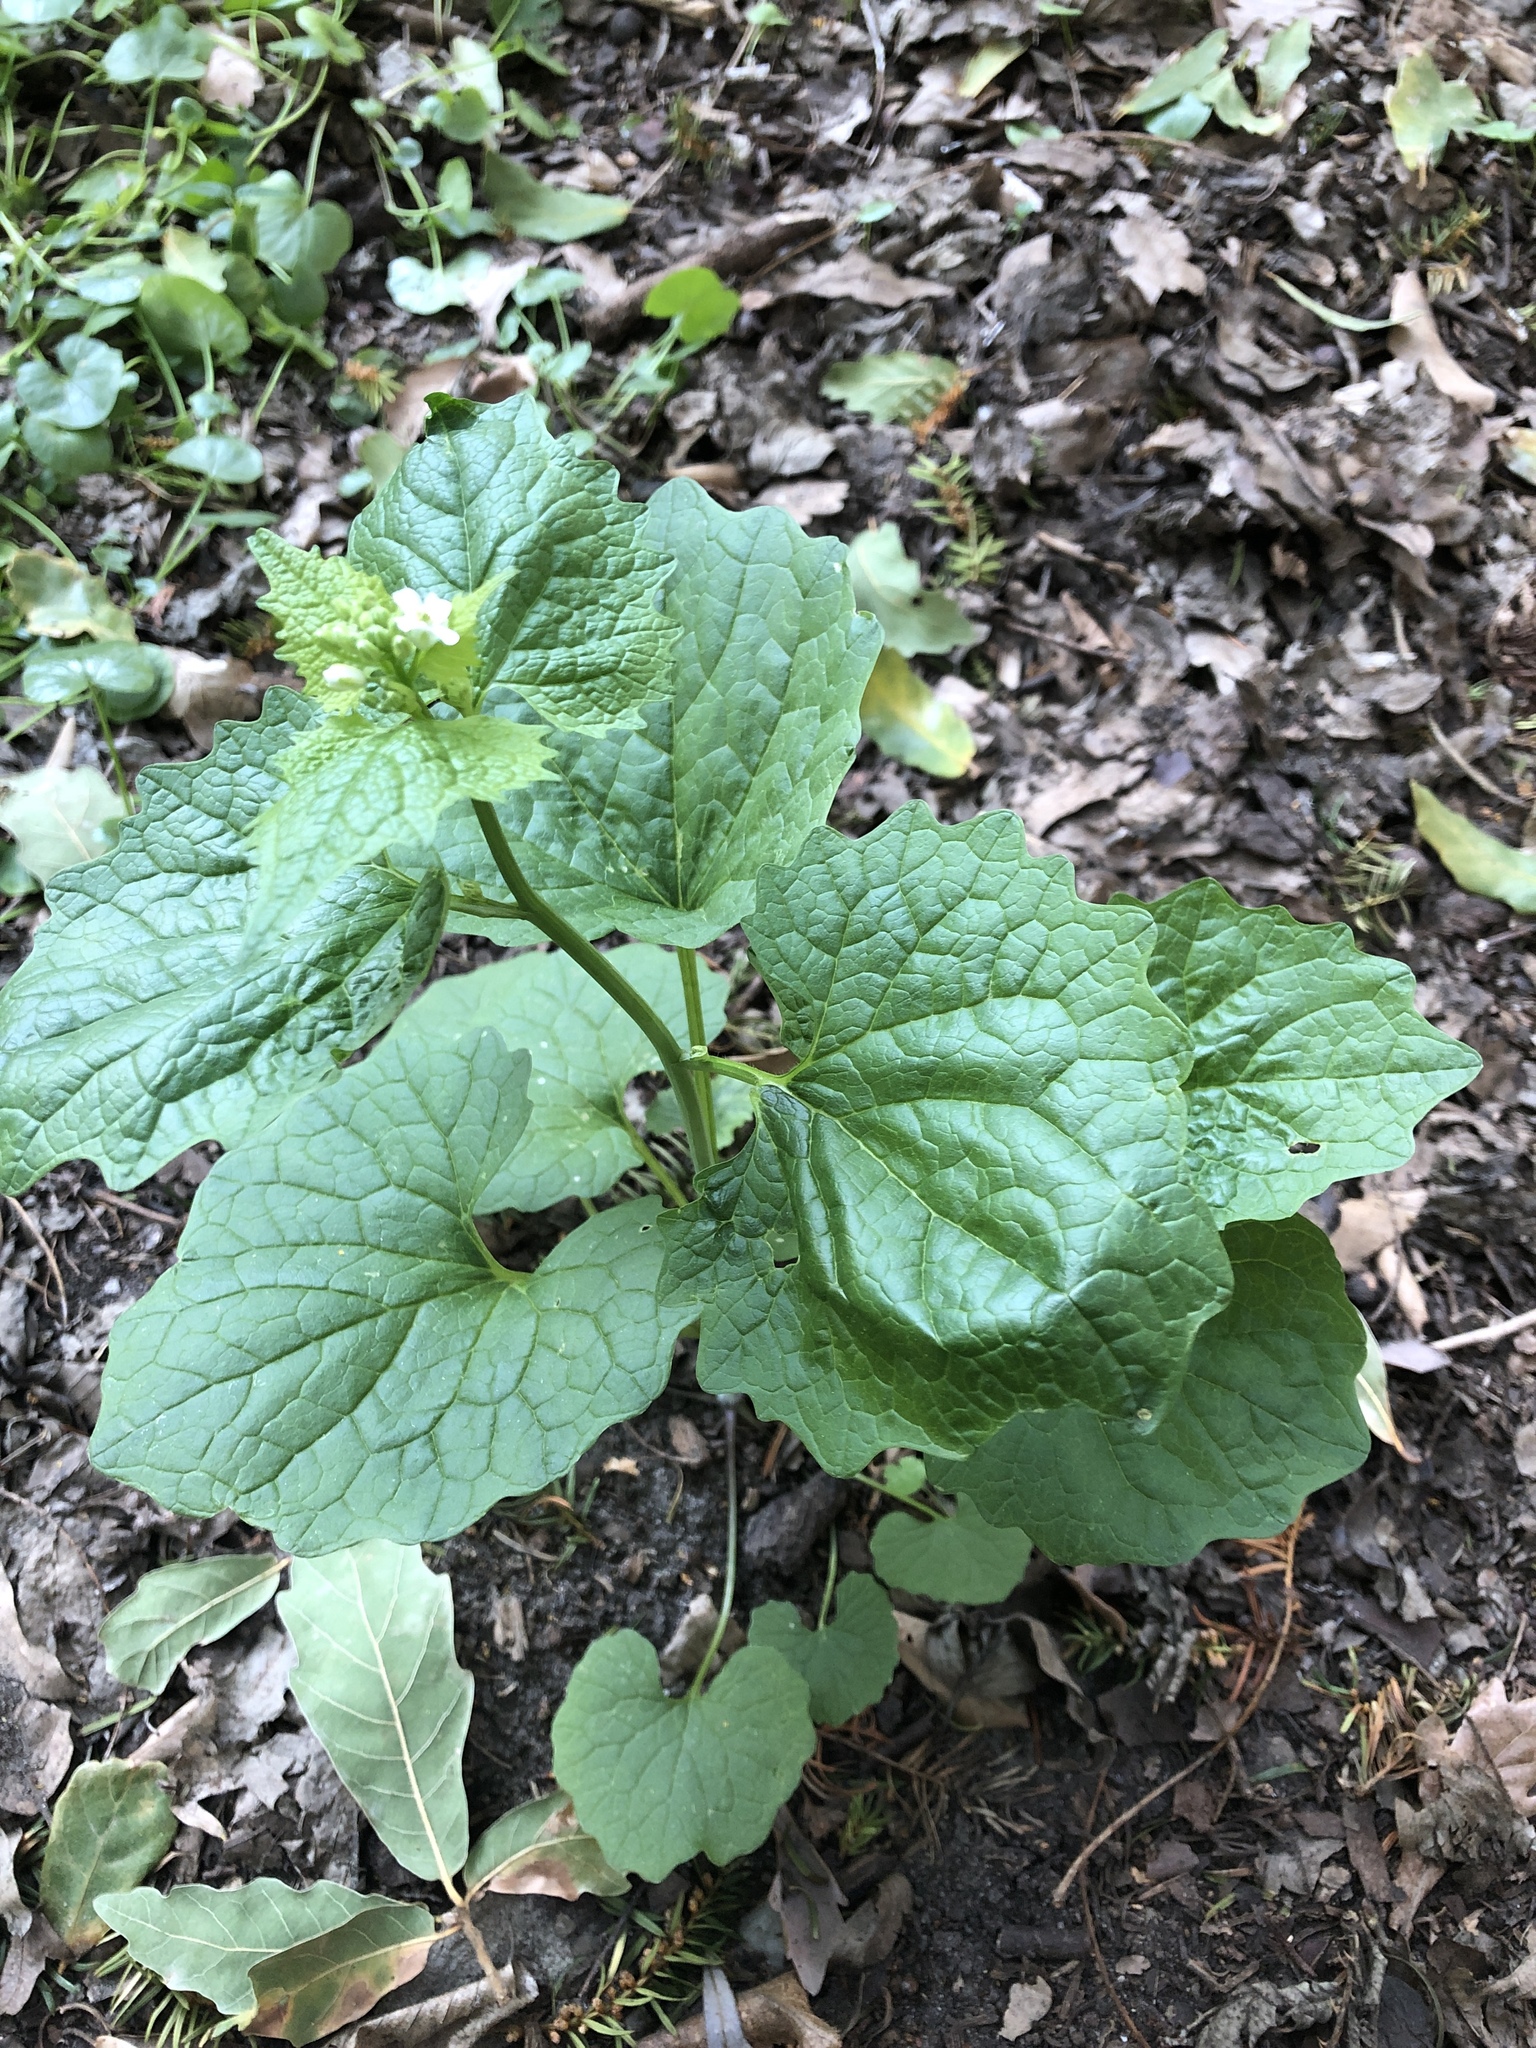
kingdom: Plantae
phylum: Tracheophyta
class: Magnoliopsida
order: Brassicales
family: Brassicaceae
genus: Alliaria
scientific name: Alliaria petiolata
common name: Garlic mustard
